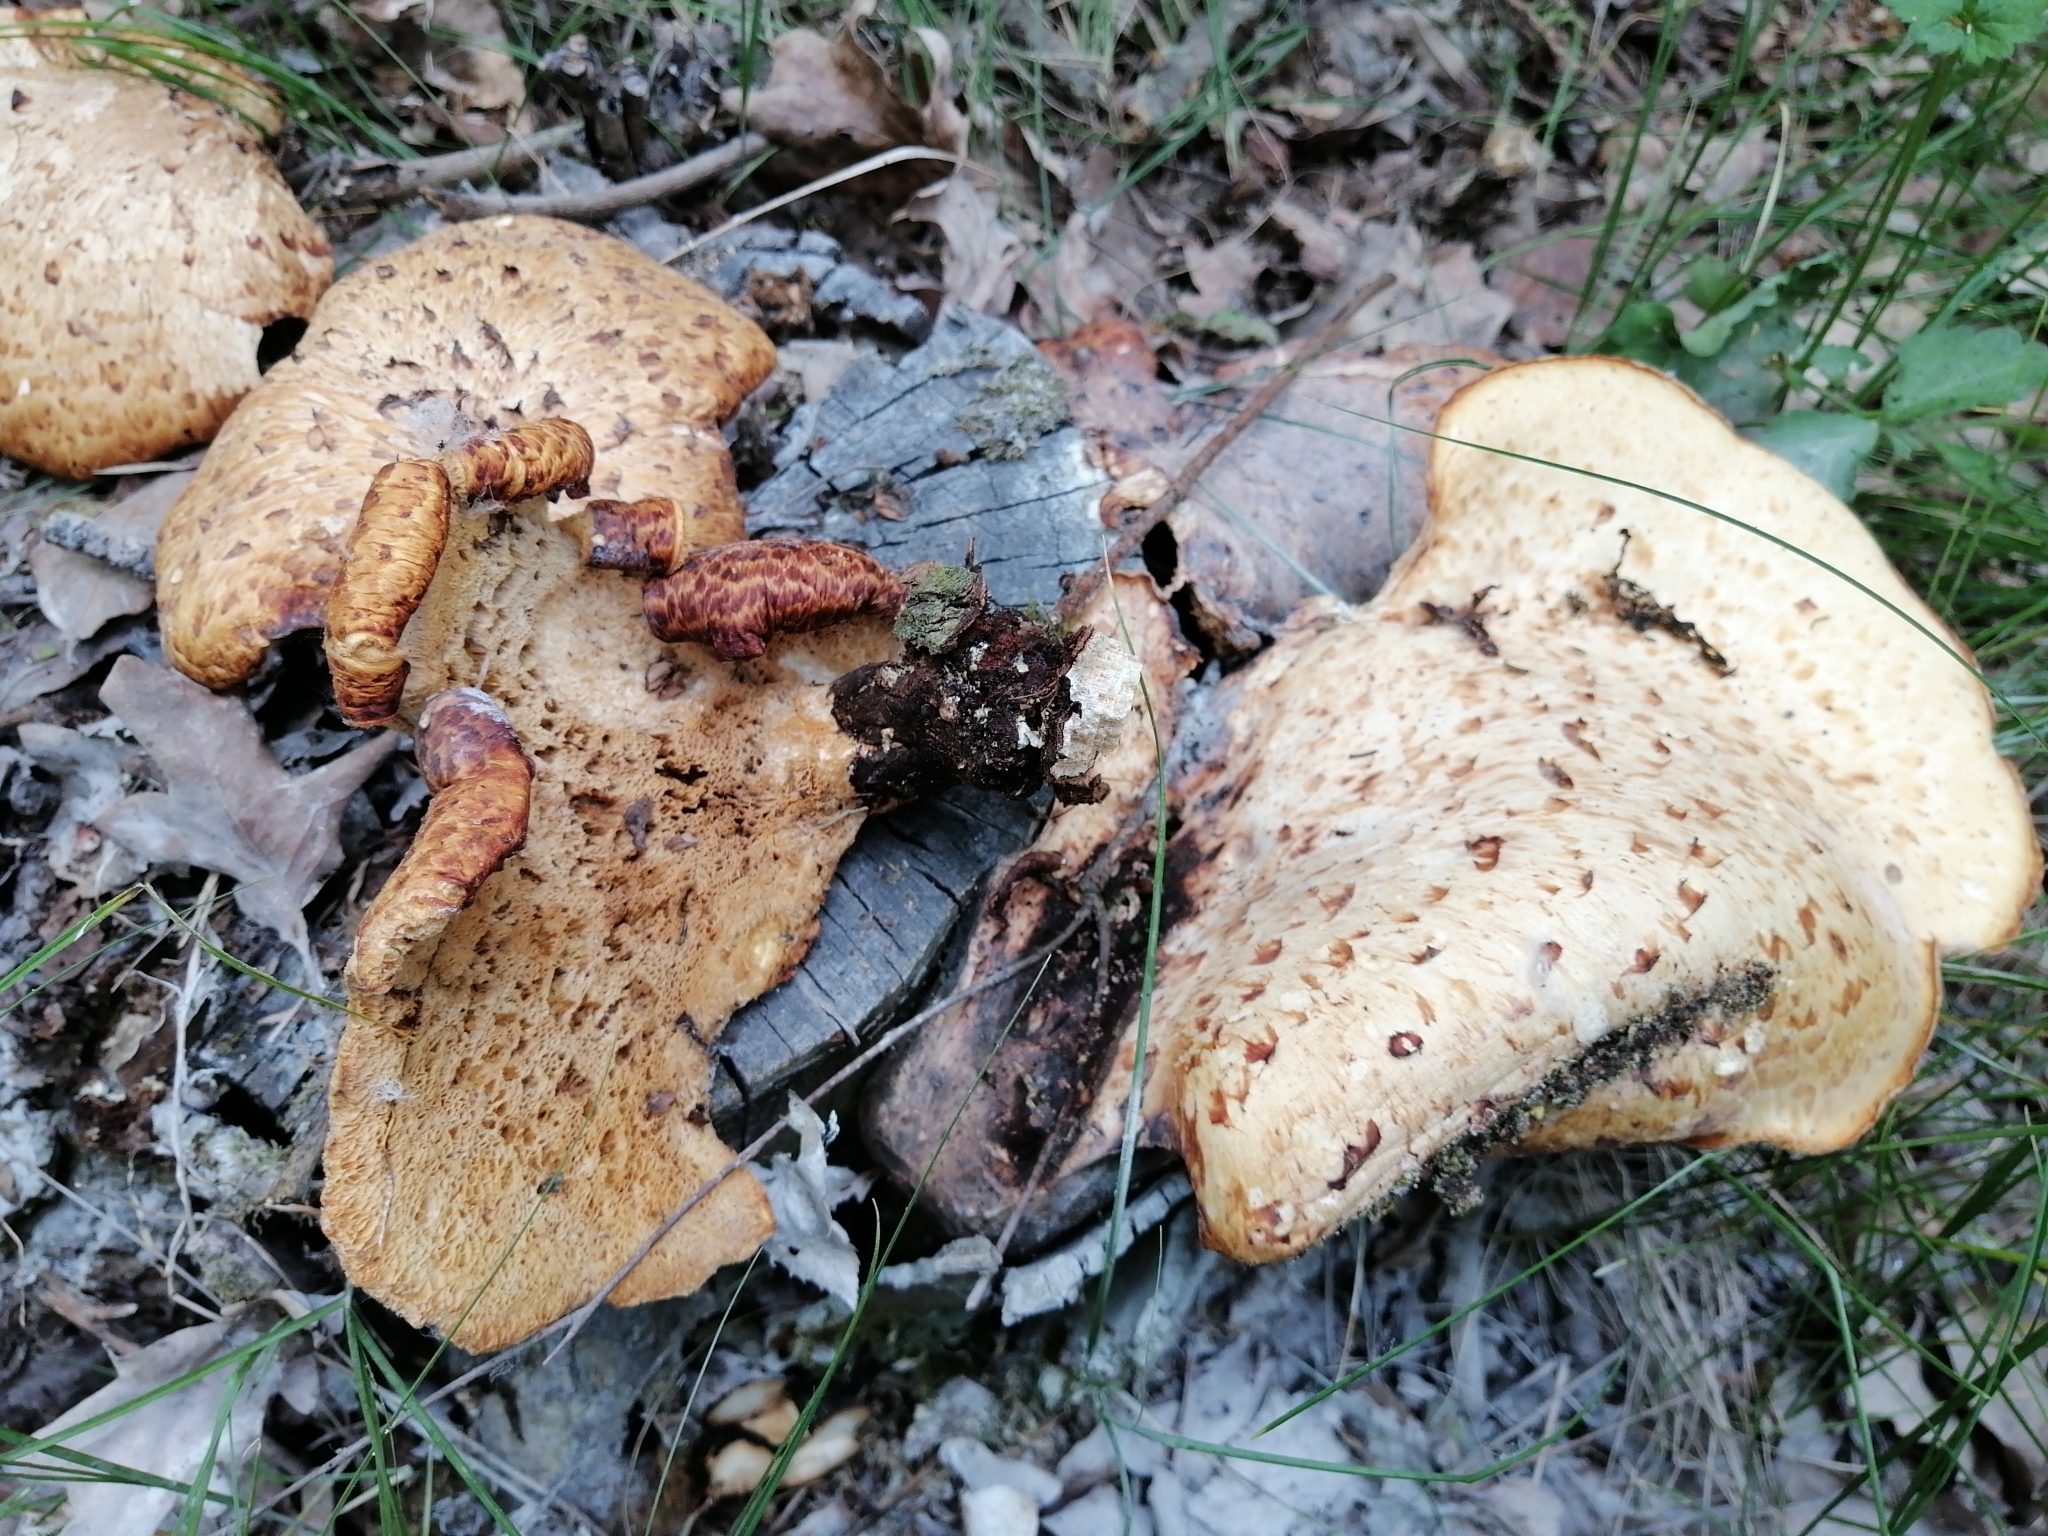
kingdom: Fungi
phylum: Basidiomycota
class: Agaricomycetes
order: Polyporales
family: Polyporaceae
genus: Cerioporus
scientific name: Cerioporus squamosus
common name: Dryad's saddle
